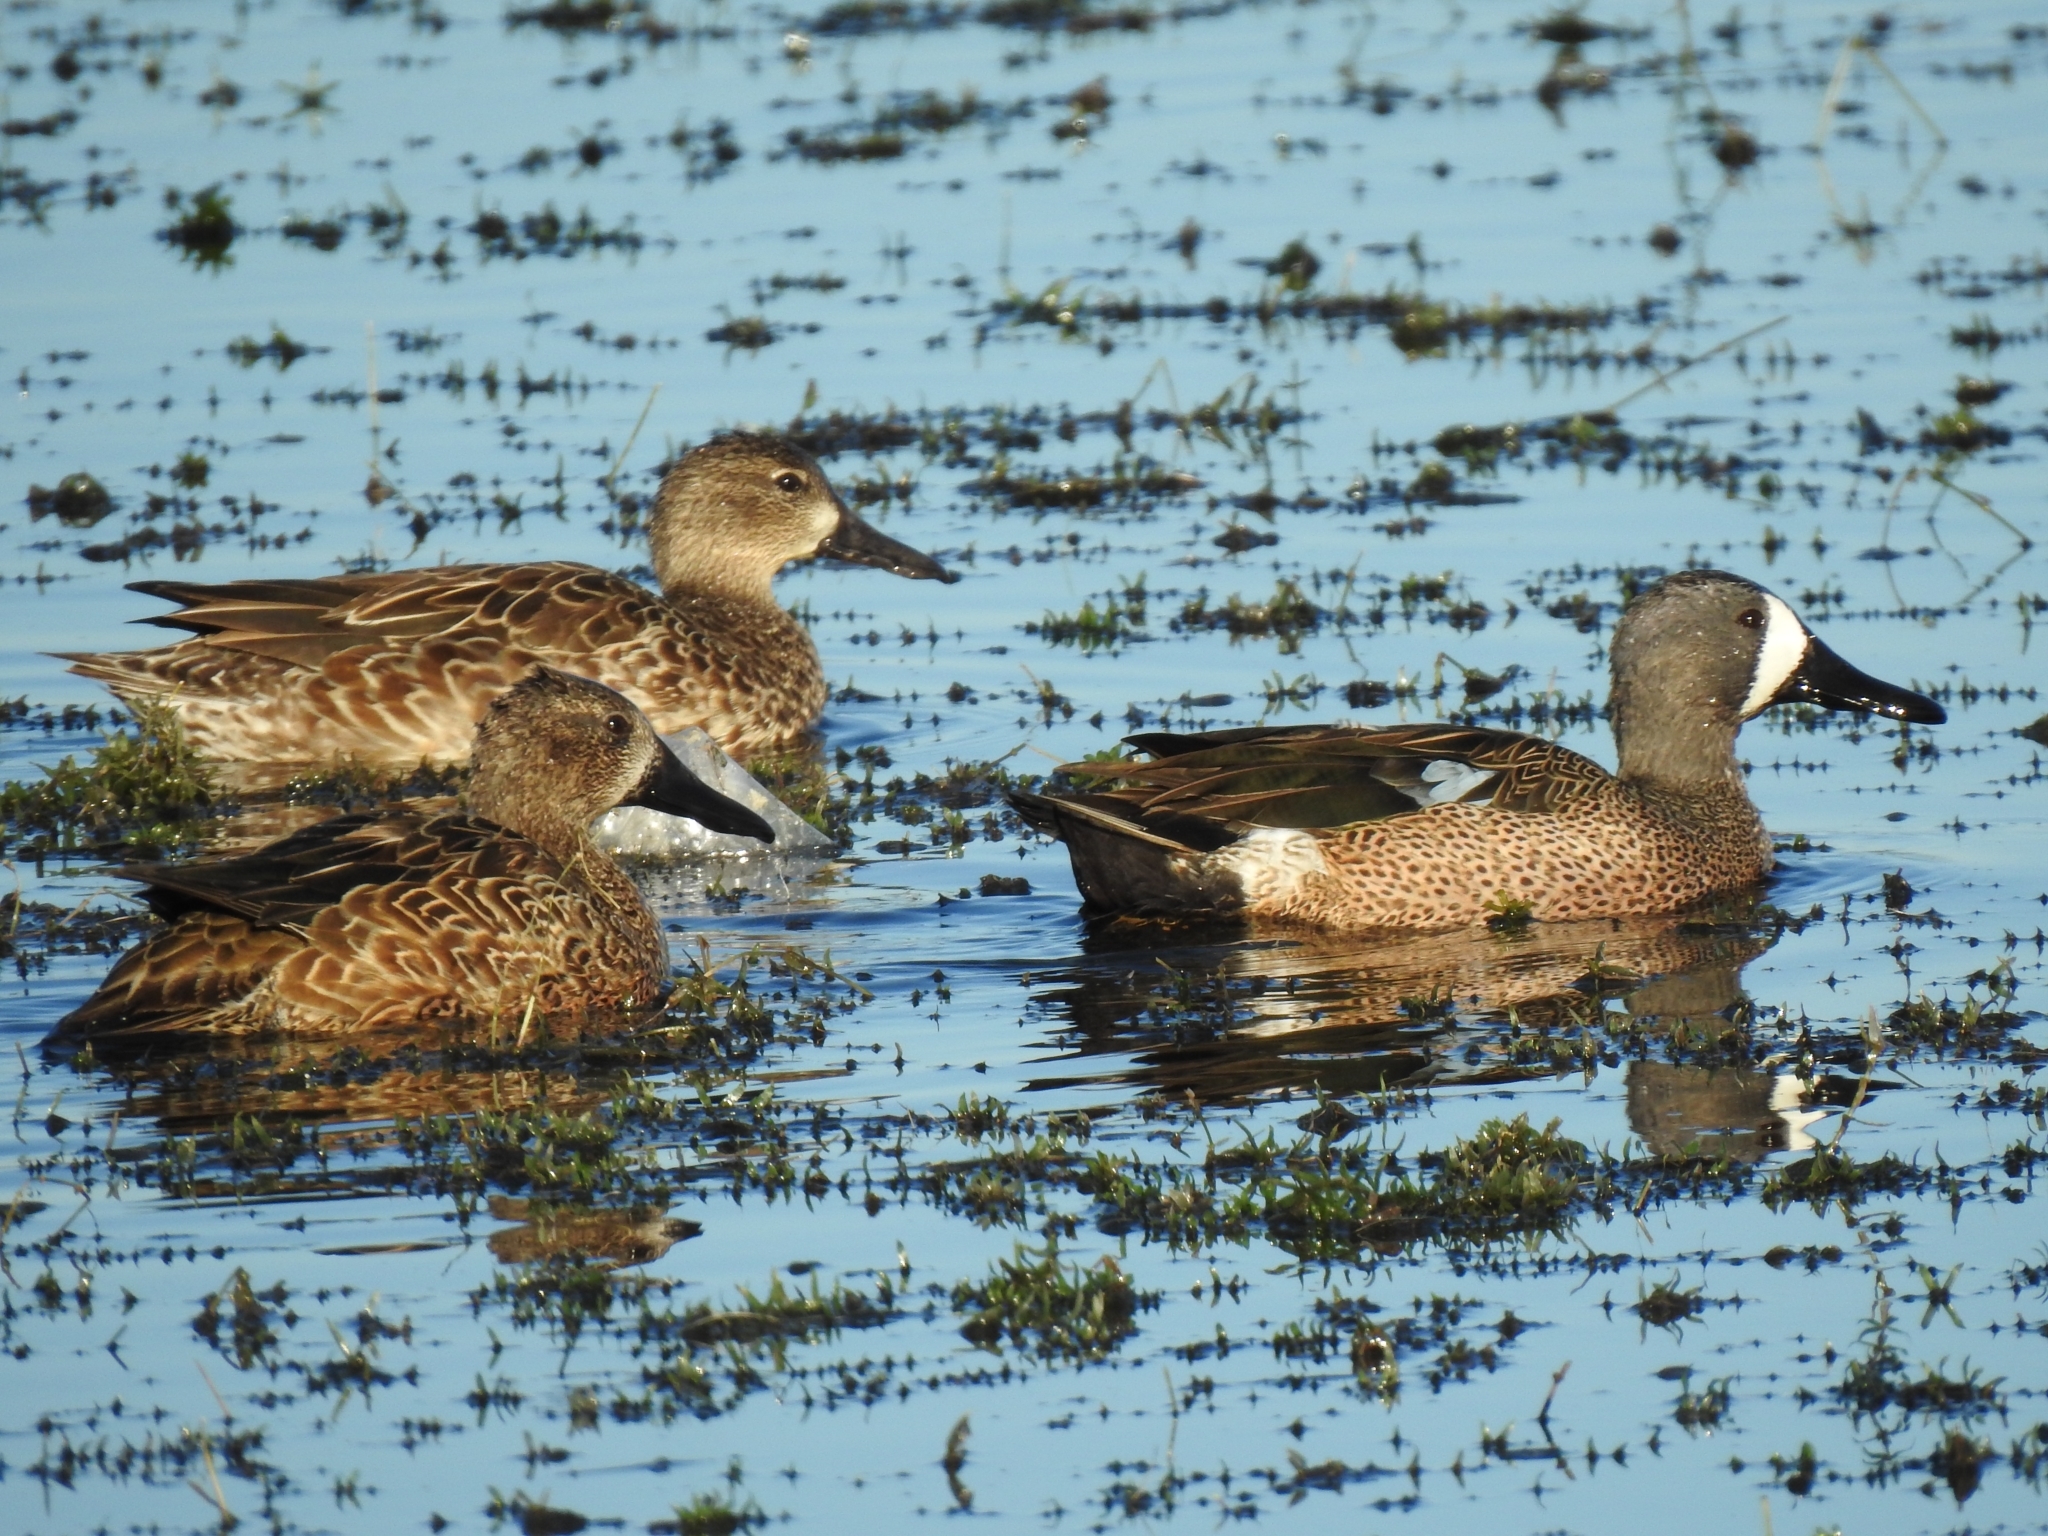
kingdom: Animalia
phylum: Chordata
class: Aves
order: Anseriformes
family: Anatidae
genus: Spatula
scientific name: Spatula discors
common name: Blue-winged teal
